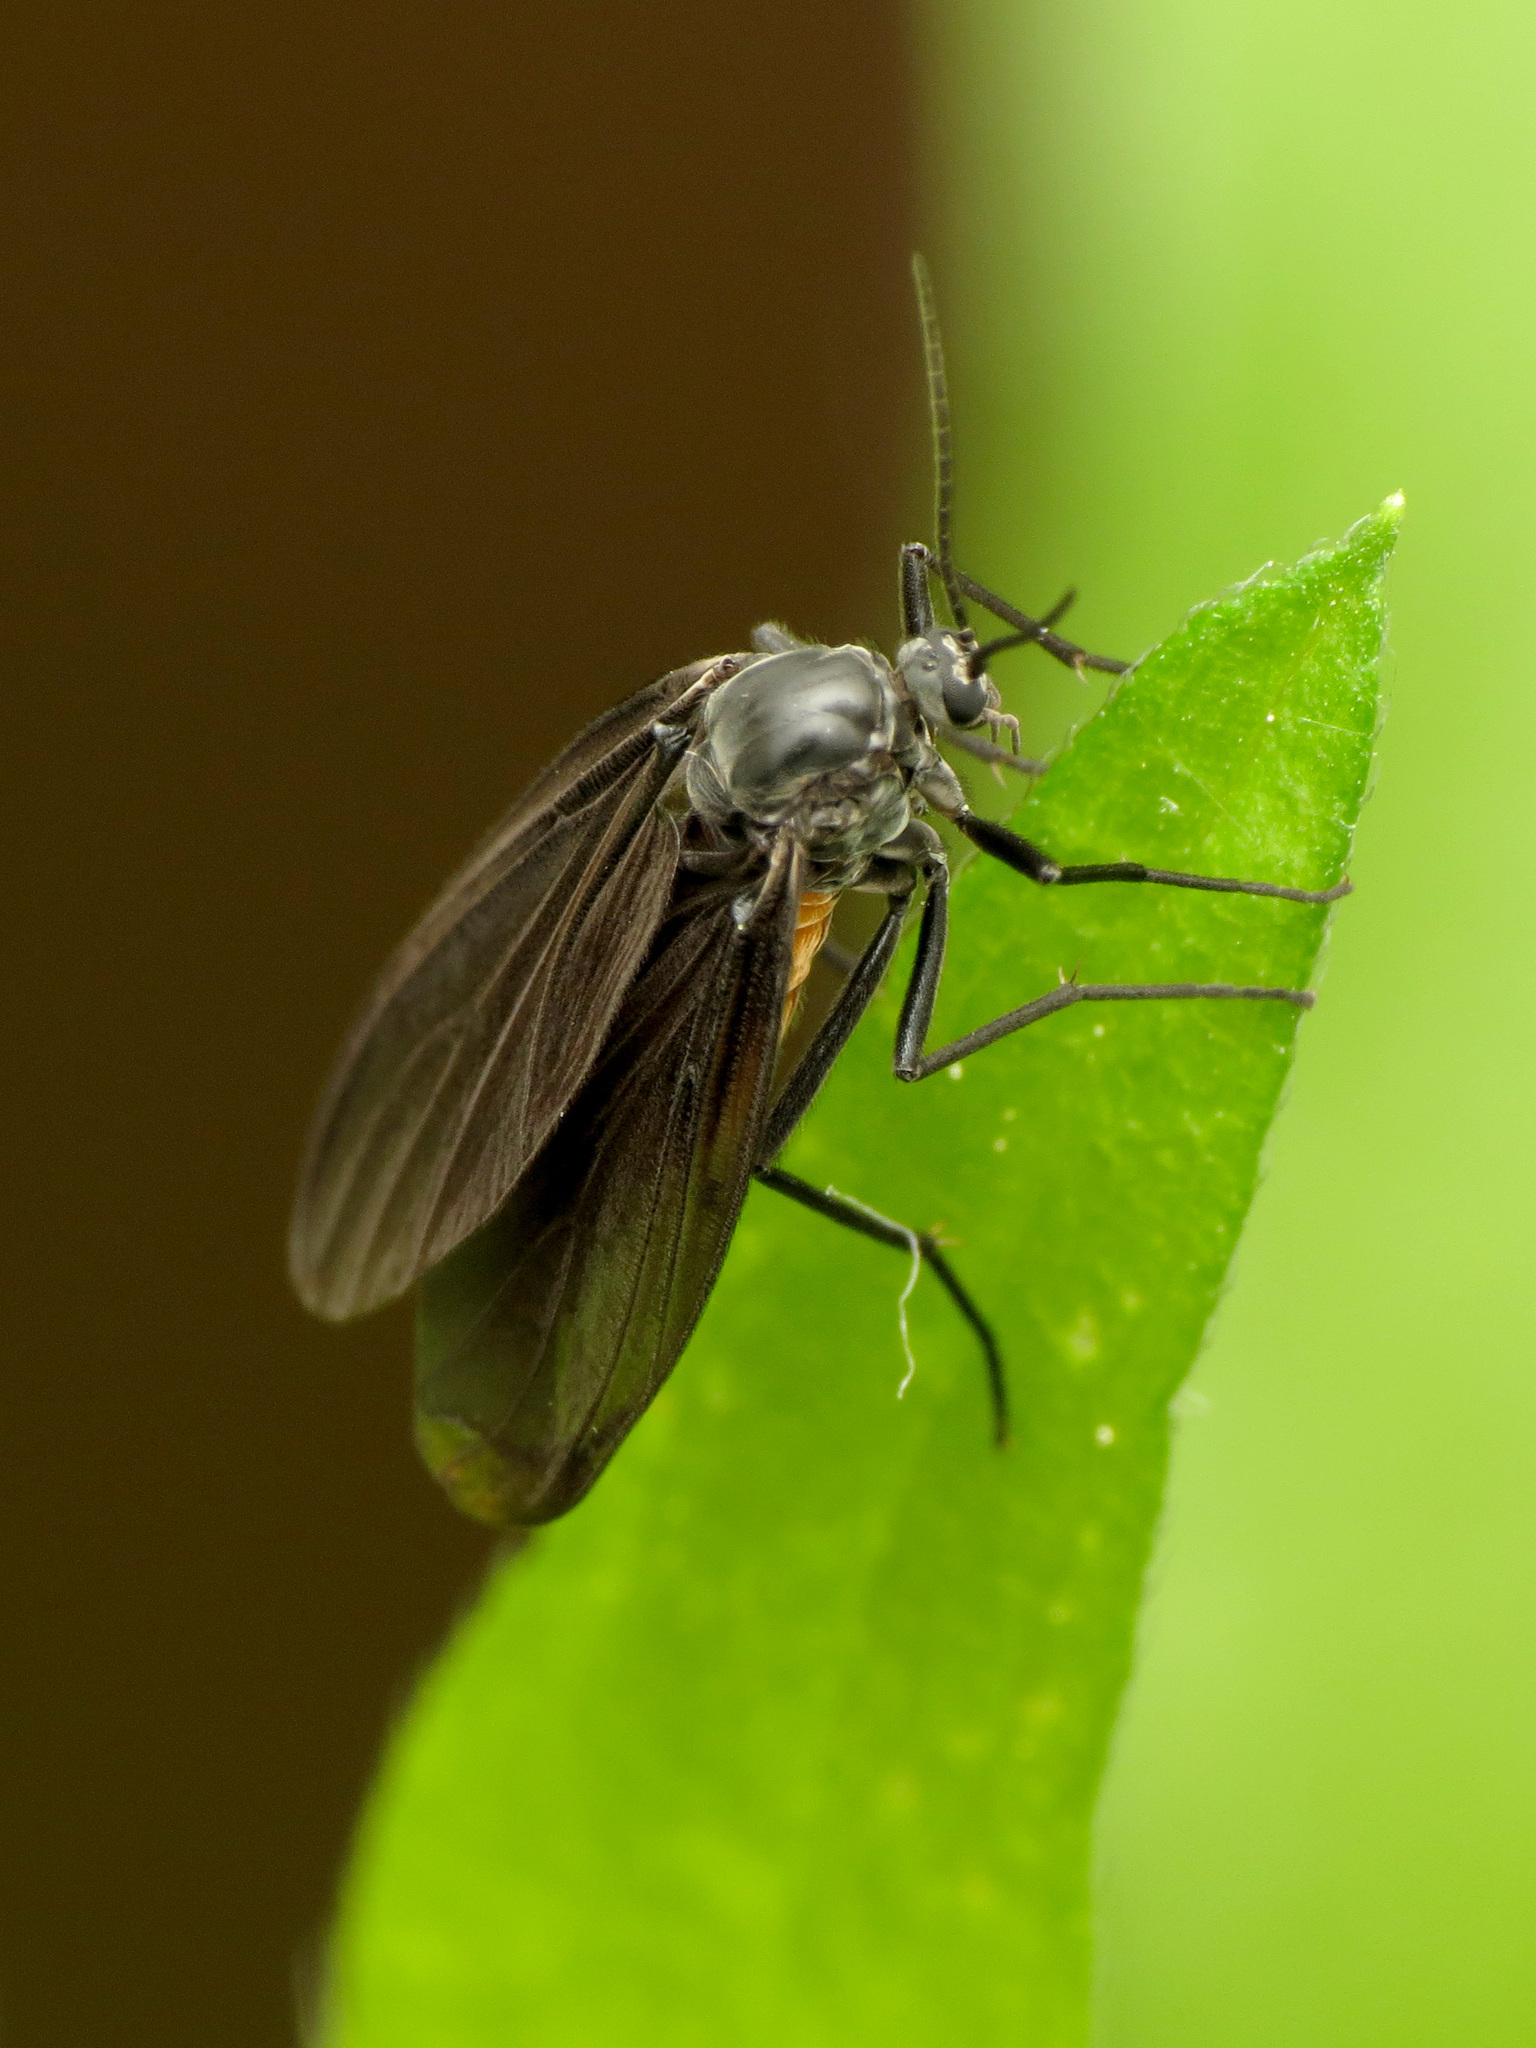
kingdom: Animalia
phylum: Arthropoda
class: Insecta
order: Diptera
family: Sciaridae
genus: Odontosciara
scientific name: Odontosciara nigra
